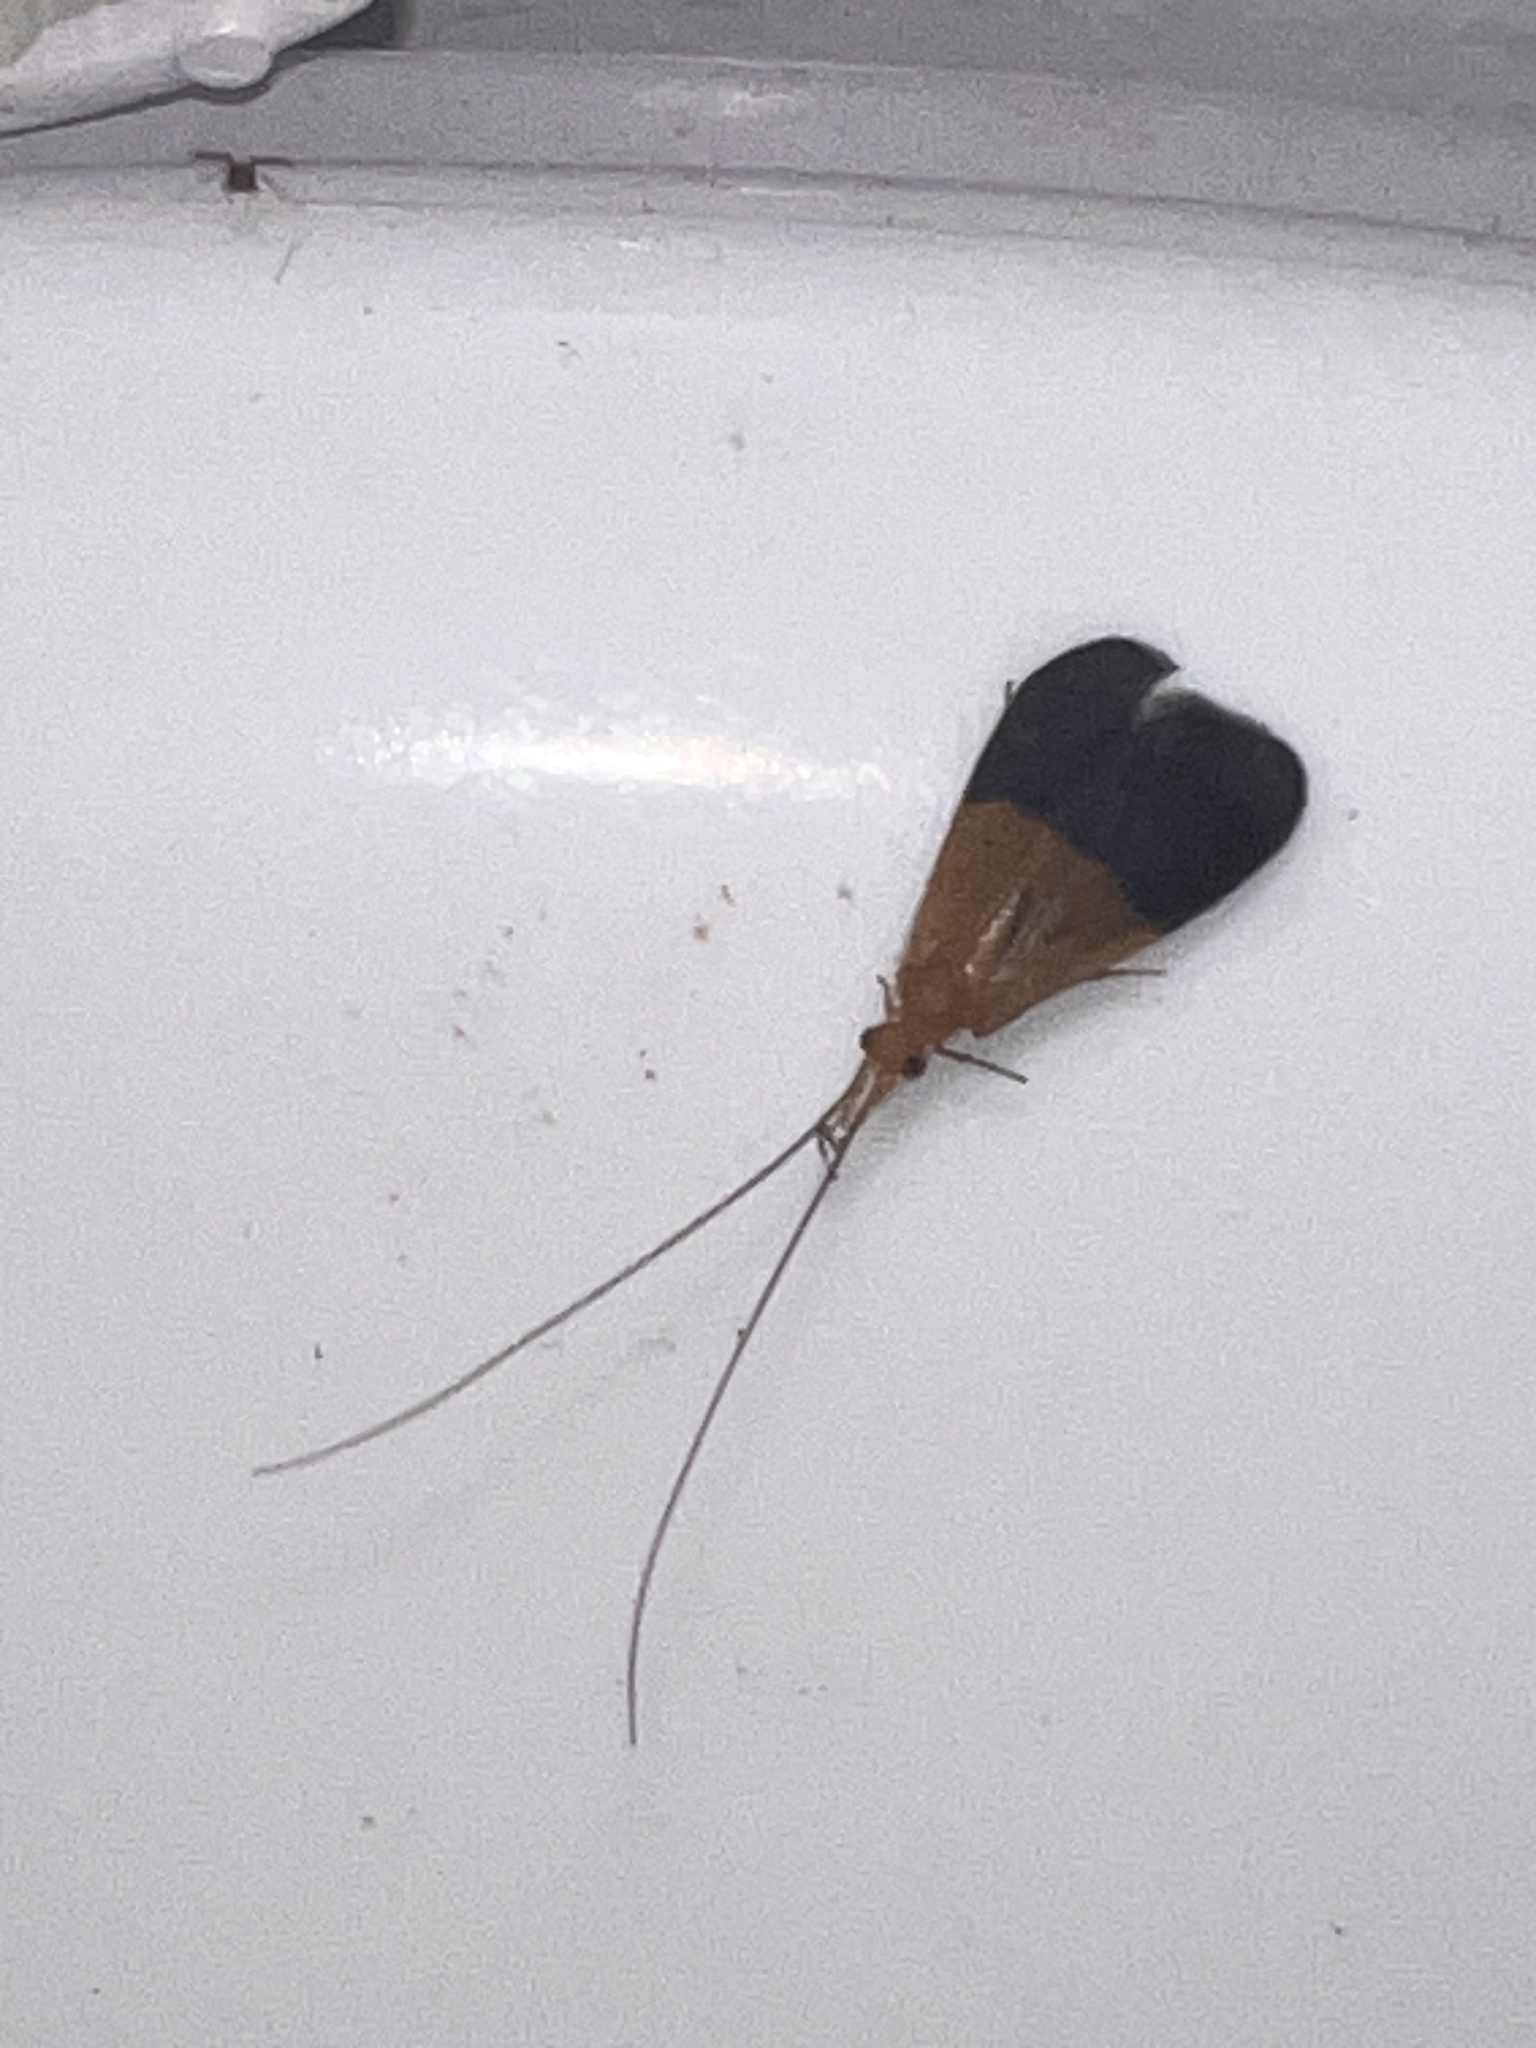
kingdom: Animalia
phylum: Arthropoda
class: Insecta
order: Trichoptera
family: Calamoceratidae
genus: Anisocentropus
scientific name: Anisocentropus torulus
